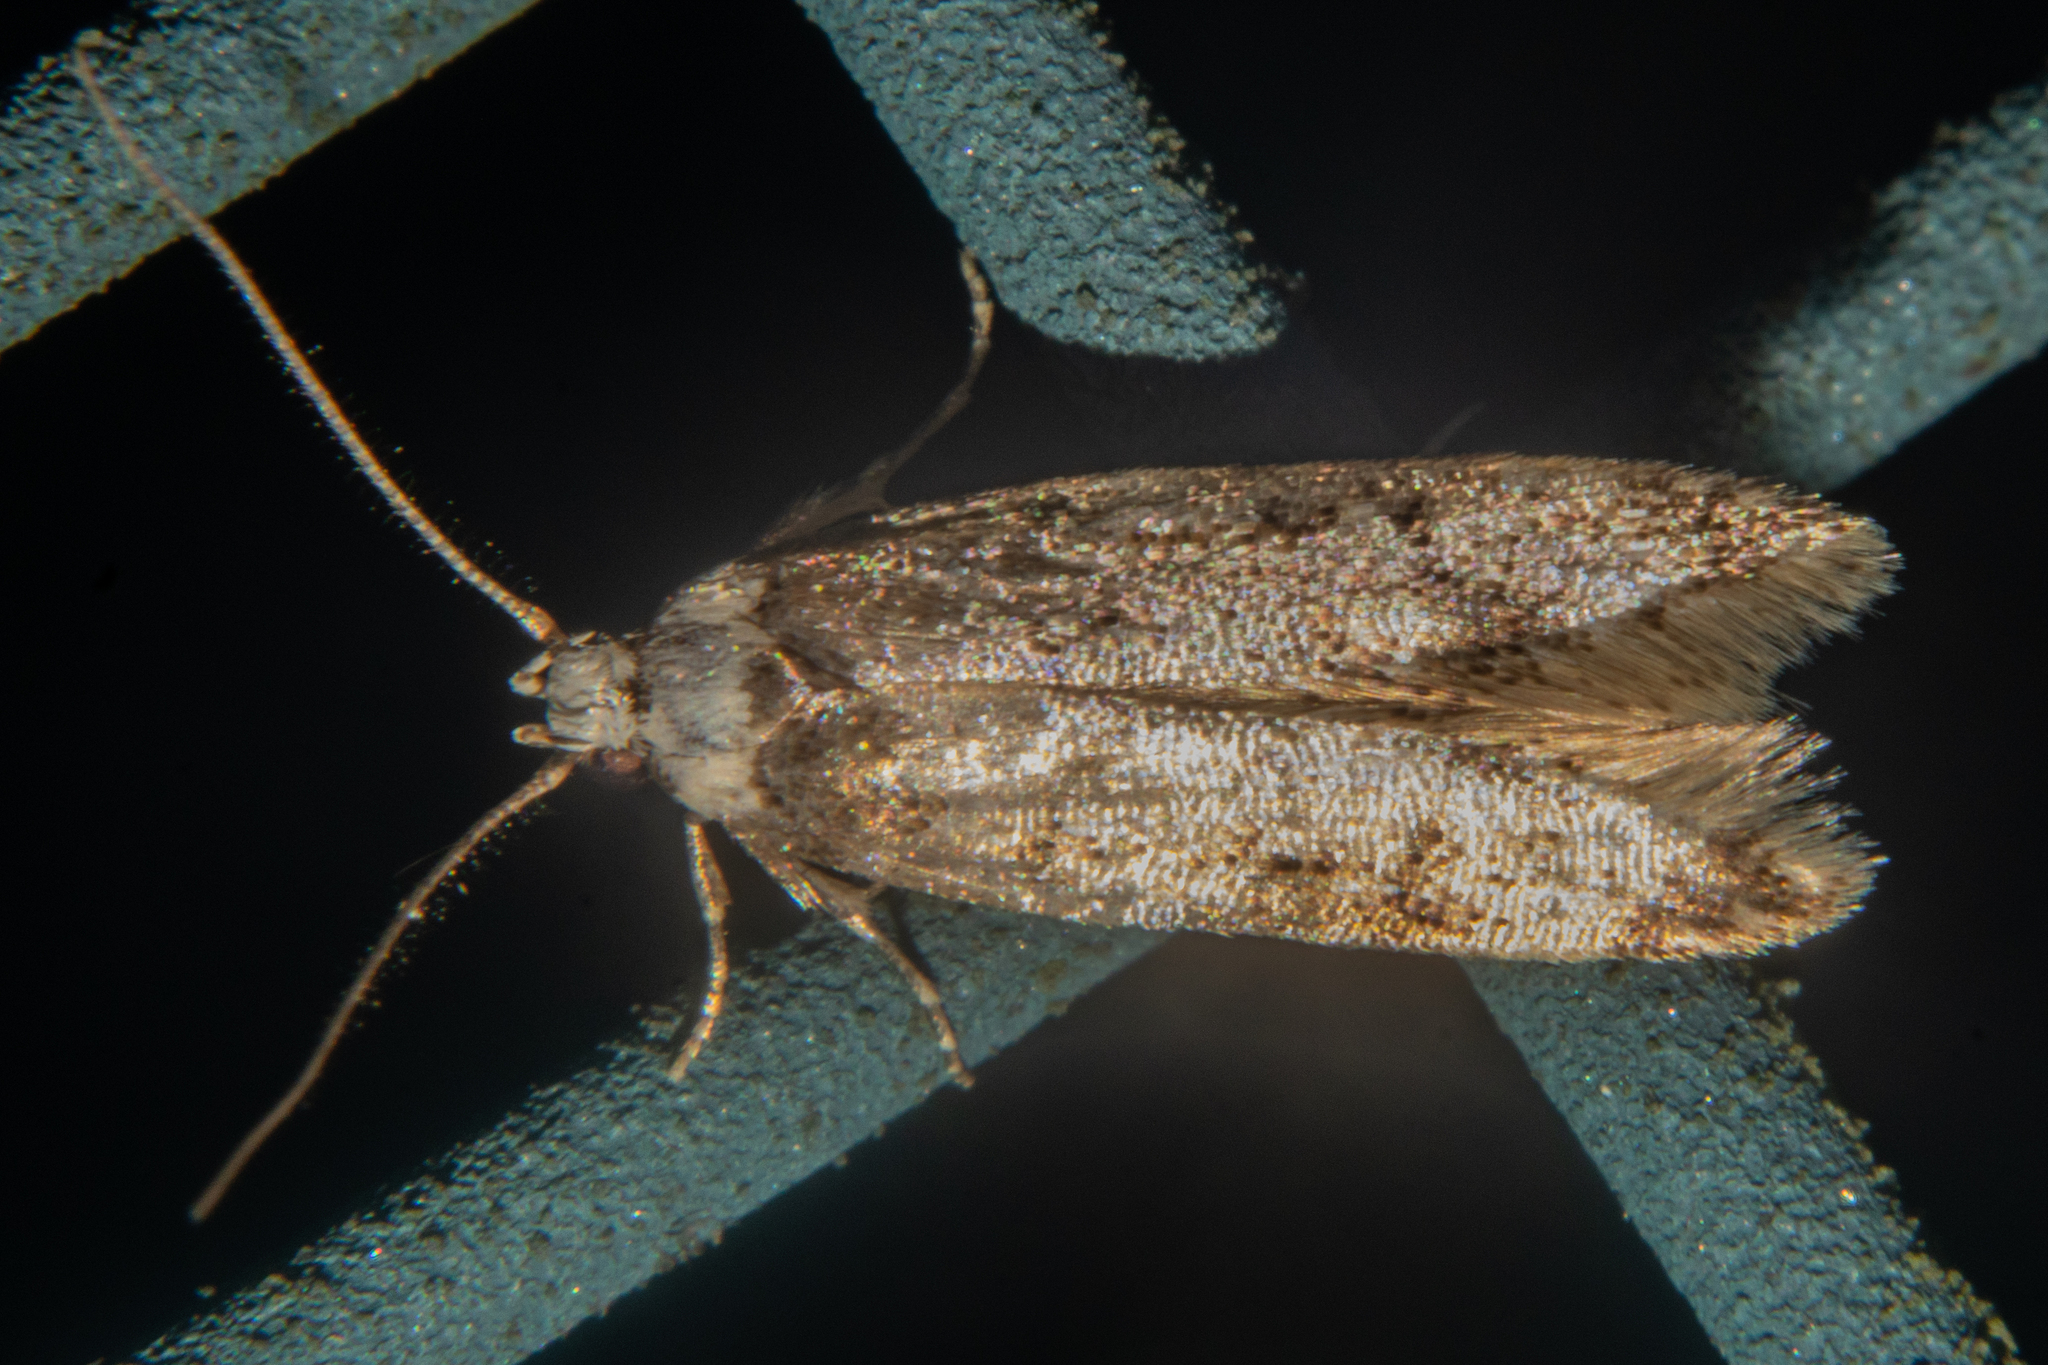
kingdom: Animalia
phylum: Arthropoda
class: Insecta
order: Lepidoptera
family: Oecophoridae
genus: Endrosis
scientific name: Endrosis sarcitrella
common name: White-shouldered house moth
